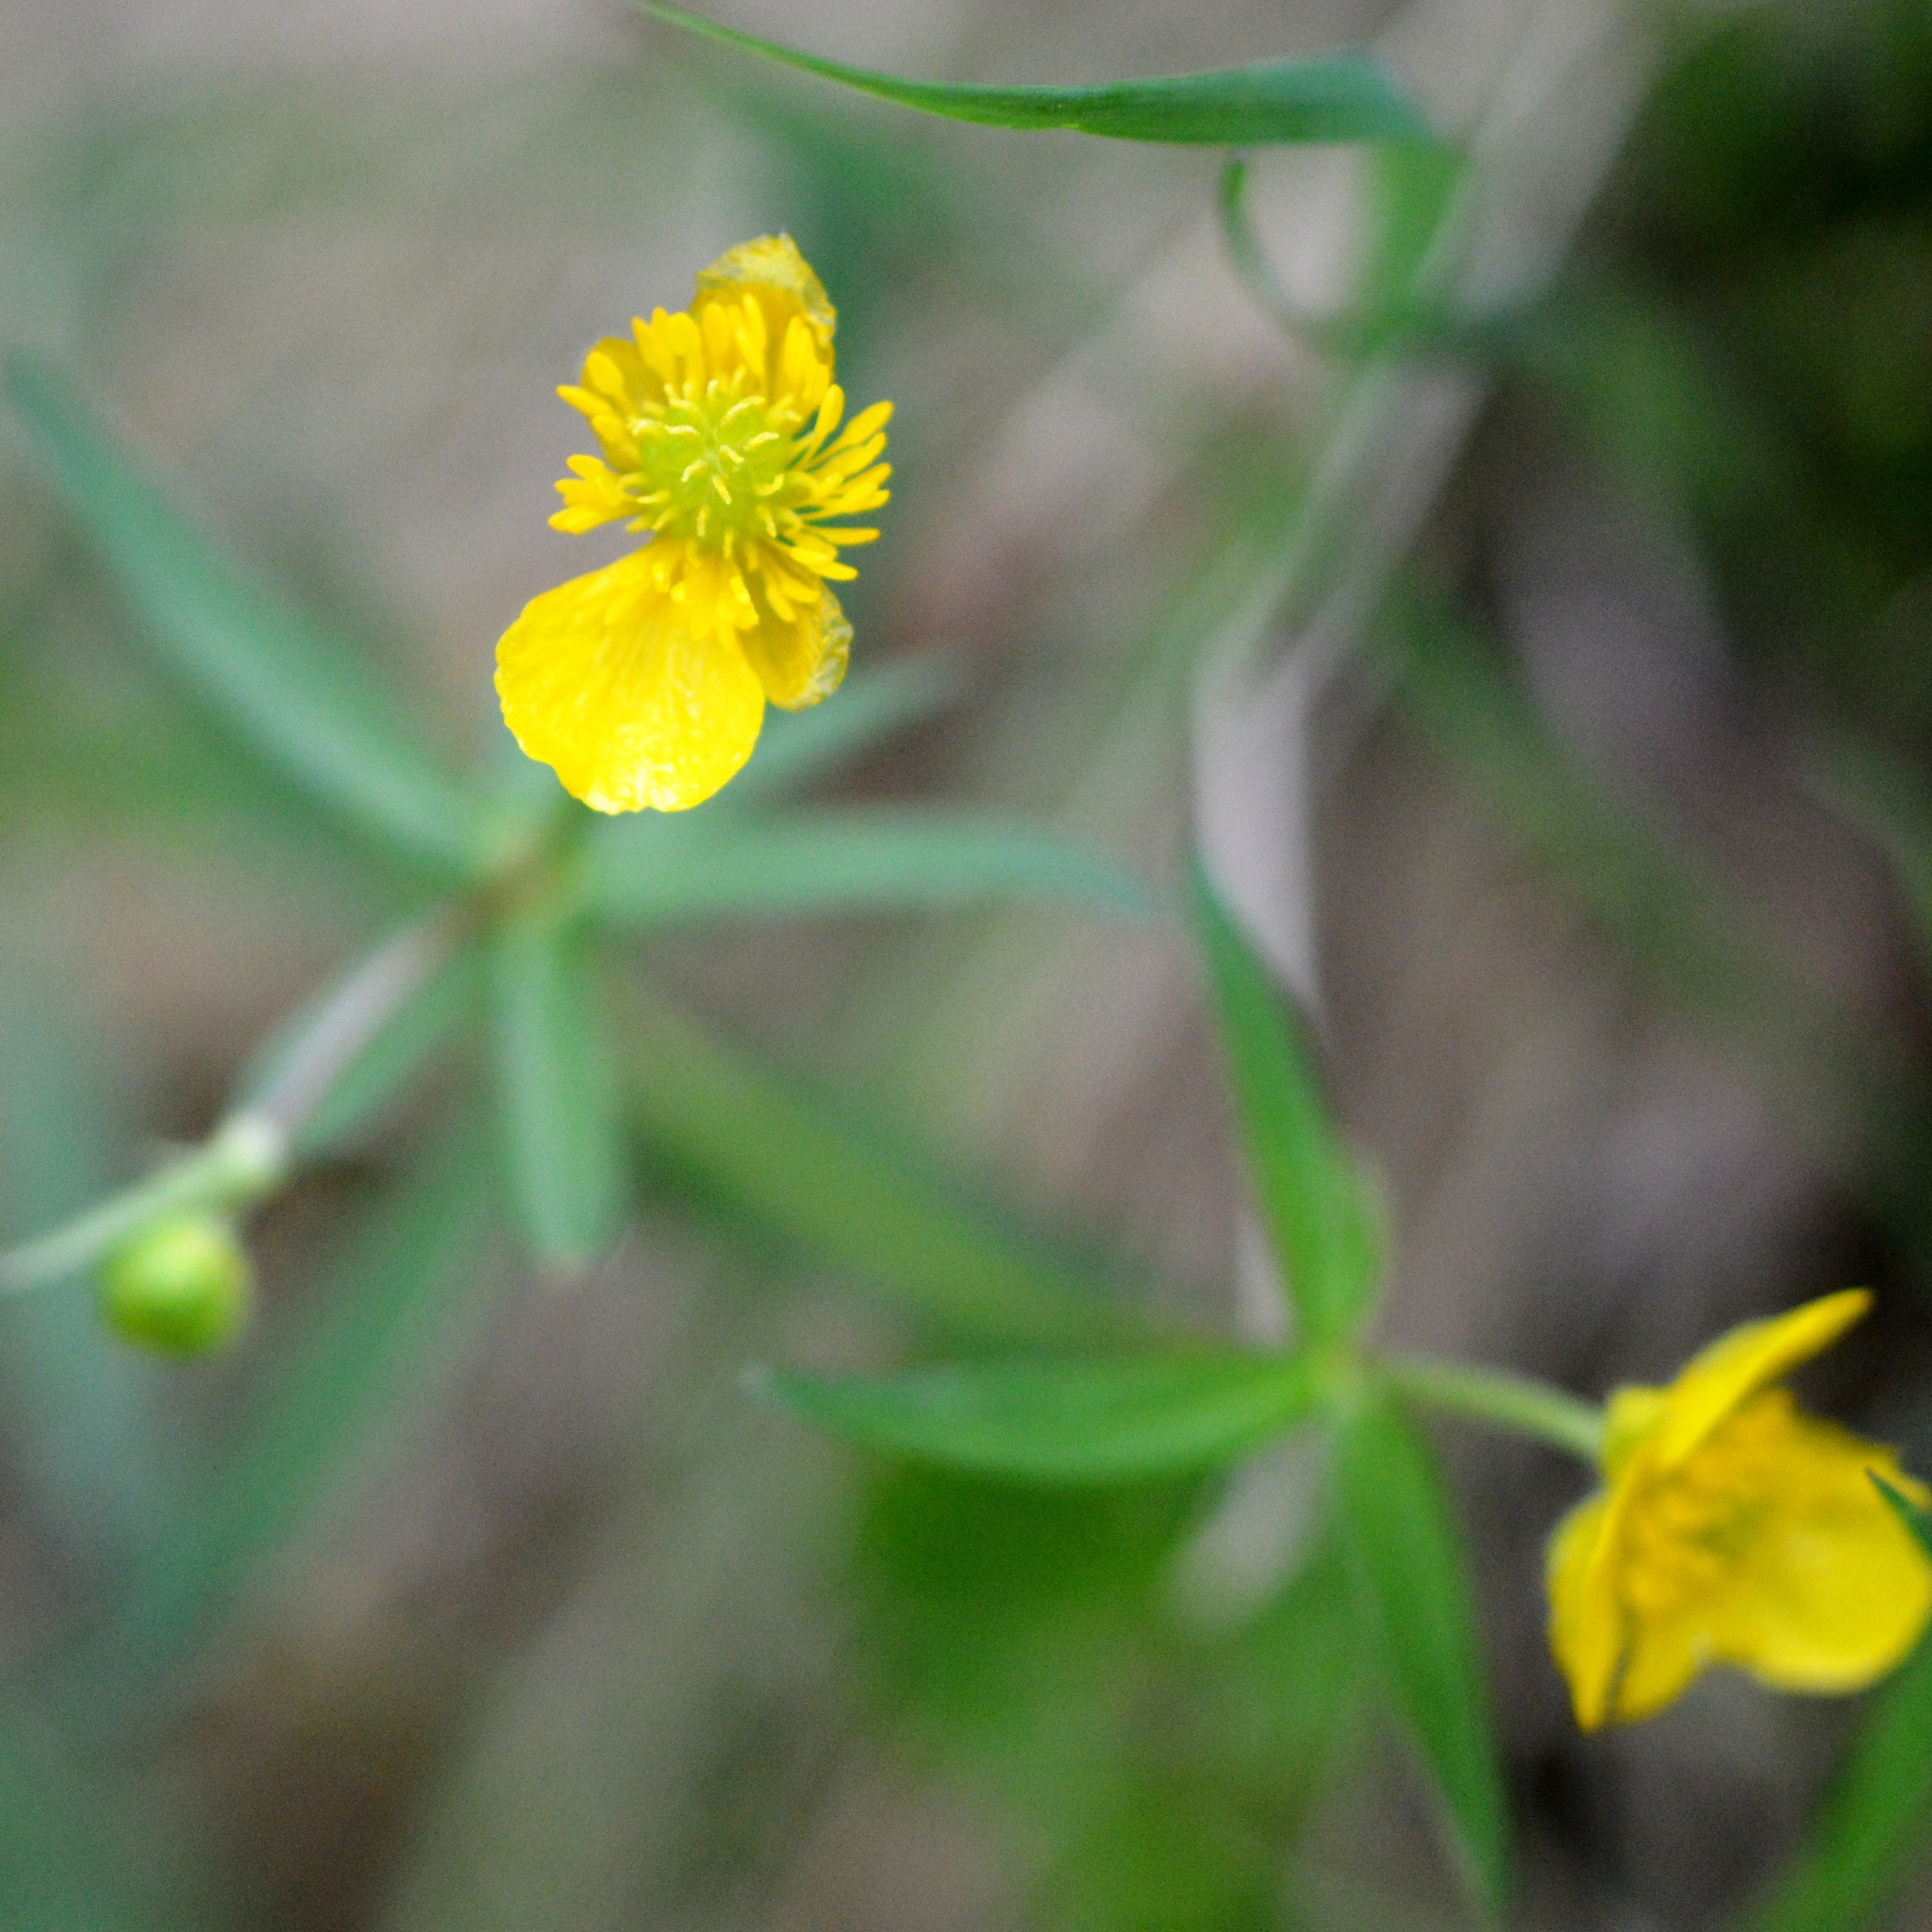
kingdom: Plantae
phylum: Tracheophyta
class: Magnoliopsida
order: Ranunculales
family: Ranunculaceae
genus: Ranunculus
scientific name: Ranunculus auricomus
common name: Goldilocks buttercup
